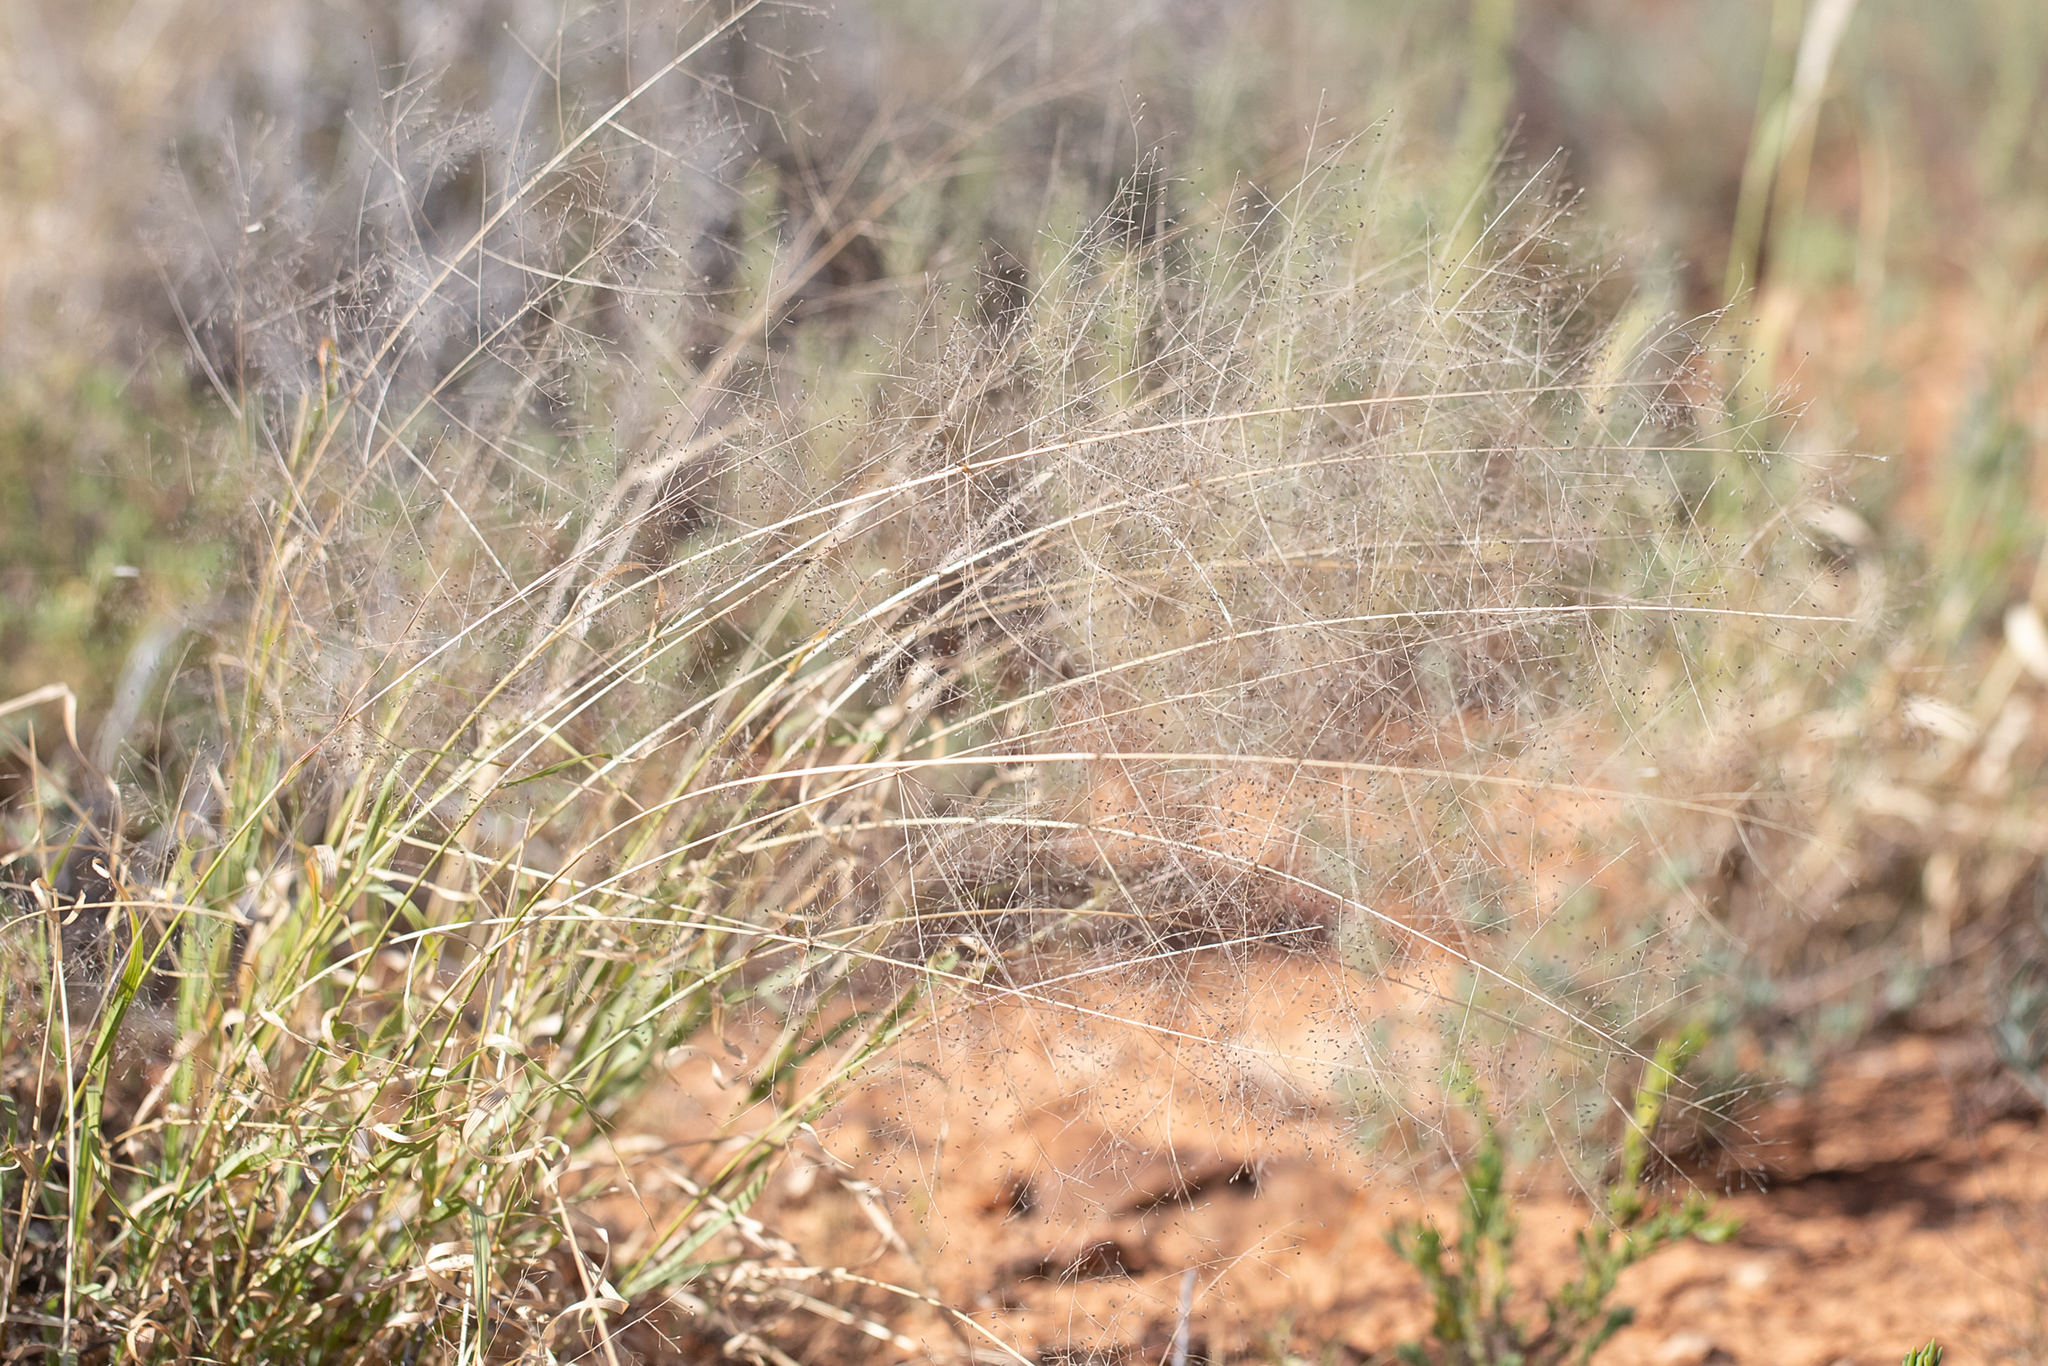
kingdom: Plantae
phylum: Tracheophyta
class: Liliopsida
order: Poales
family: Poaceae
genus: Sporobolus
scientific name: Sporobolus caroli
